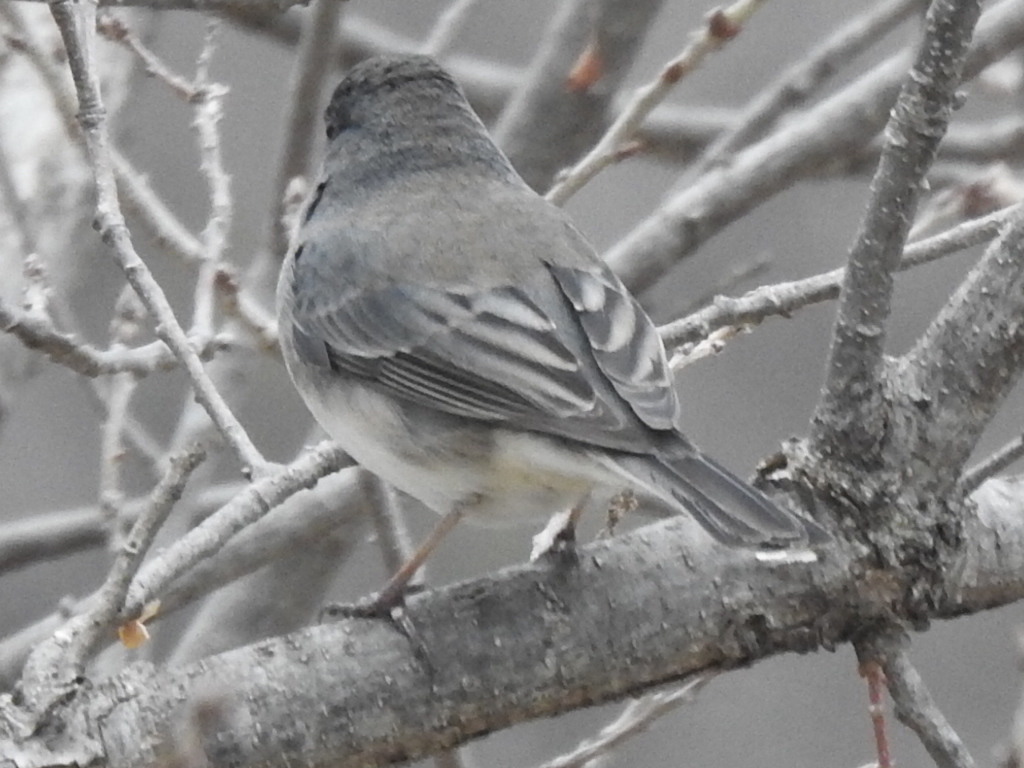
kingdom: Animalia
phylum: Chordata
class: Aves
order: Passeriformes
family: Passerellidae
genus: Junco
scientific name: Junco hyemalis
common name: Dark-eyed junco
